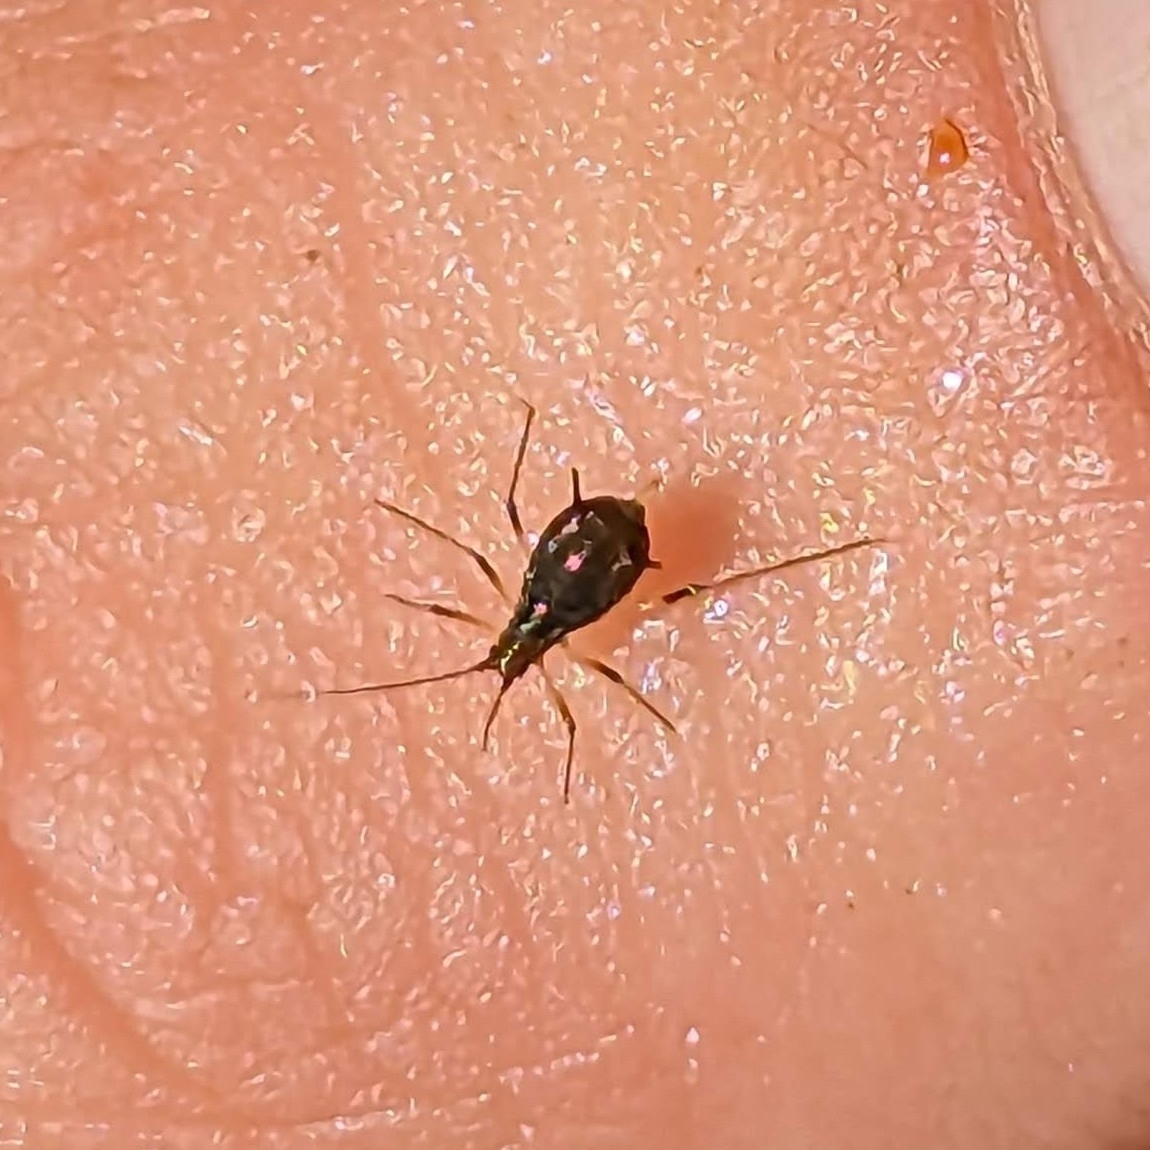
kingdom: Animalia
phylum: Arthropoda
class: Insecta
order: Hemiptera
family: Aphididae
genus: Uroleucon
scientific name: Uroleucon sonchi
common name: Large sowthistle aphid
